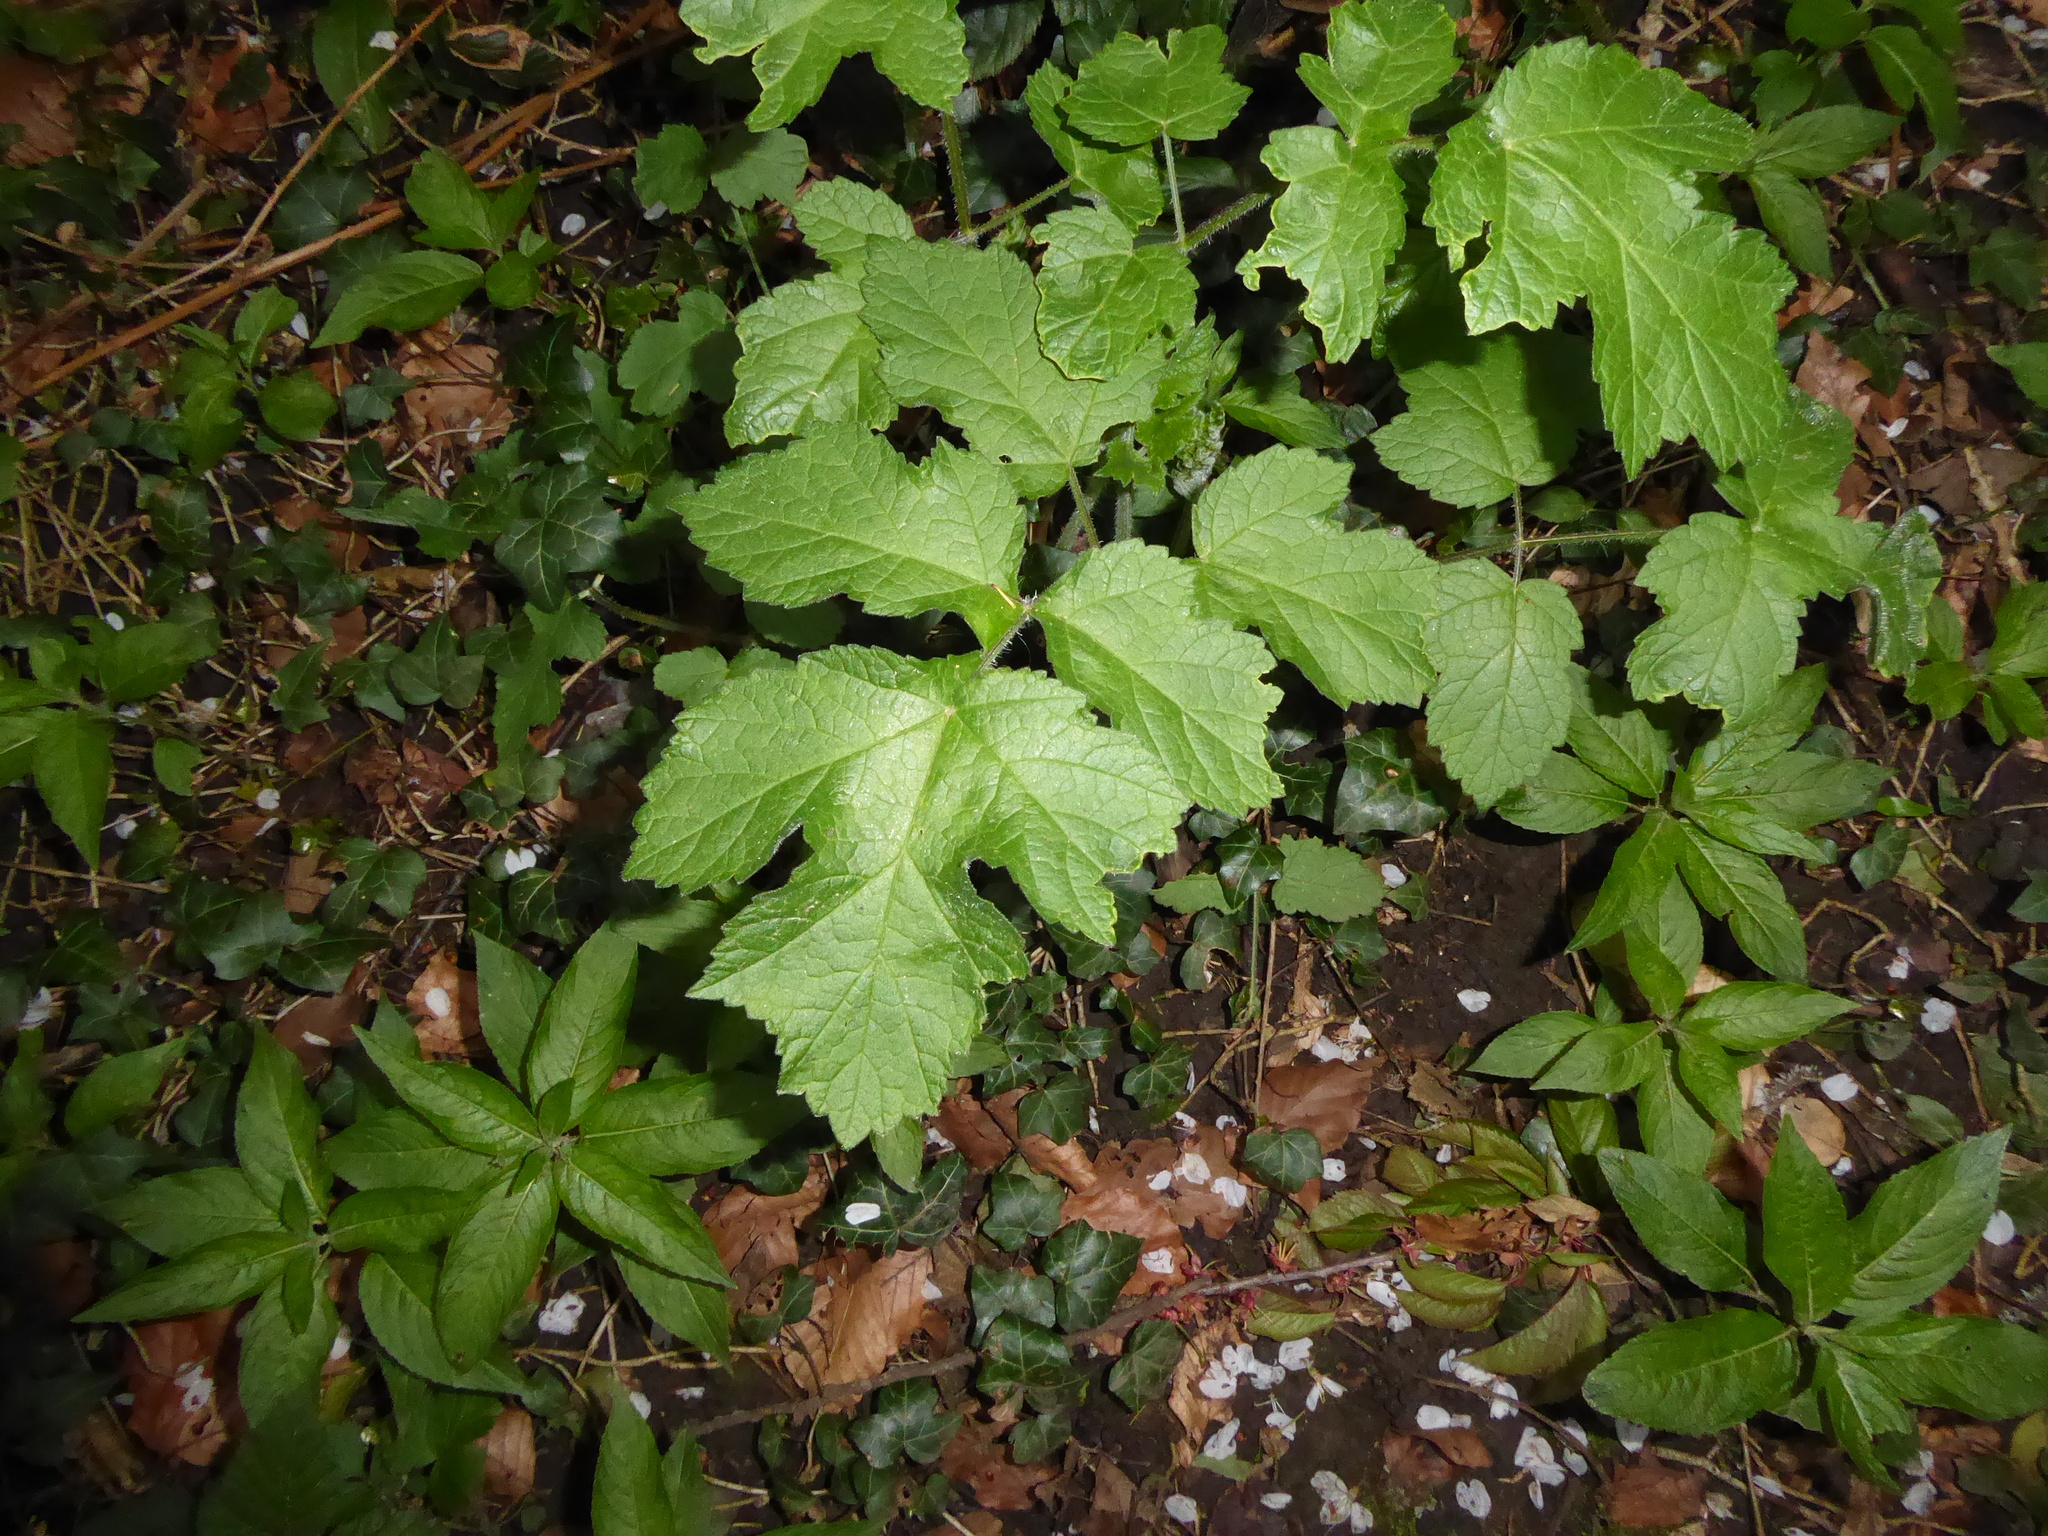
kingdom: Plantae
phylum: Tracheophyta
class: Magnoliopsida
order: Apiales
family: Apiaceae
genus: Heracleum
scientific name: Heracleum sphondylium
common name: Hogweed
